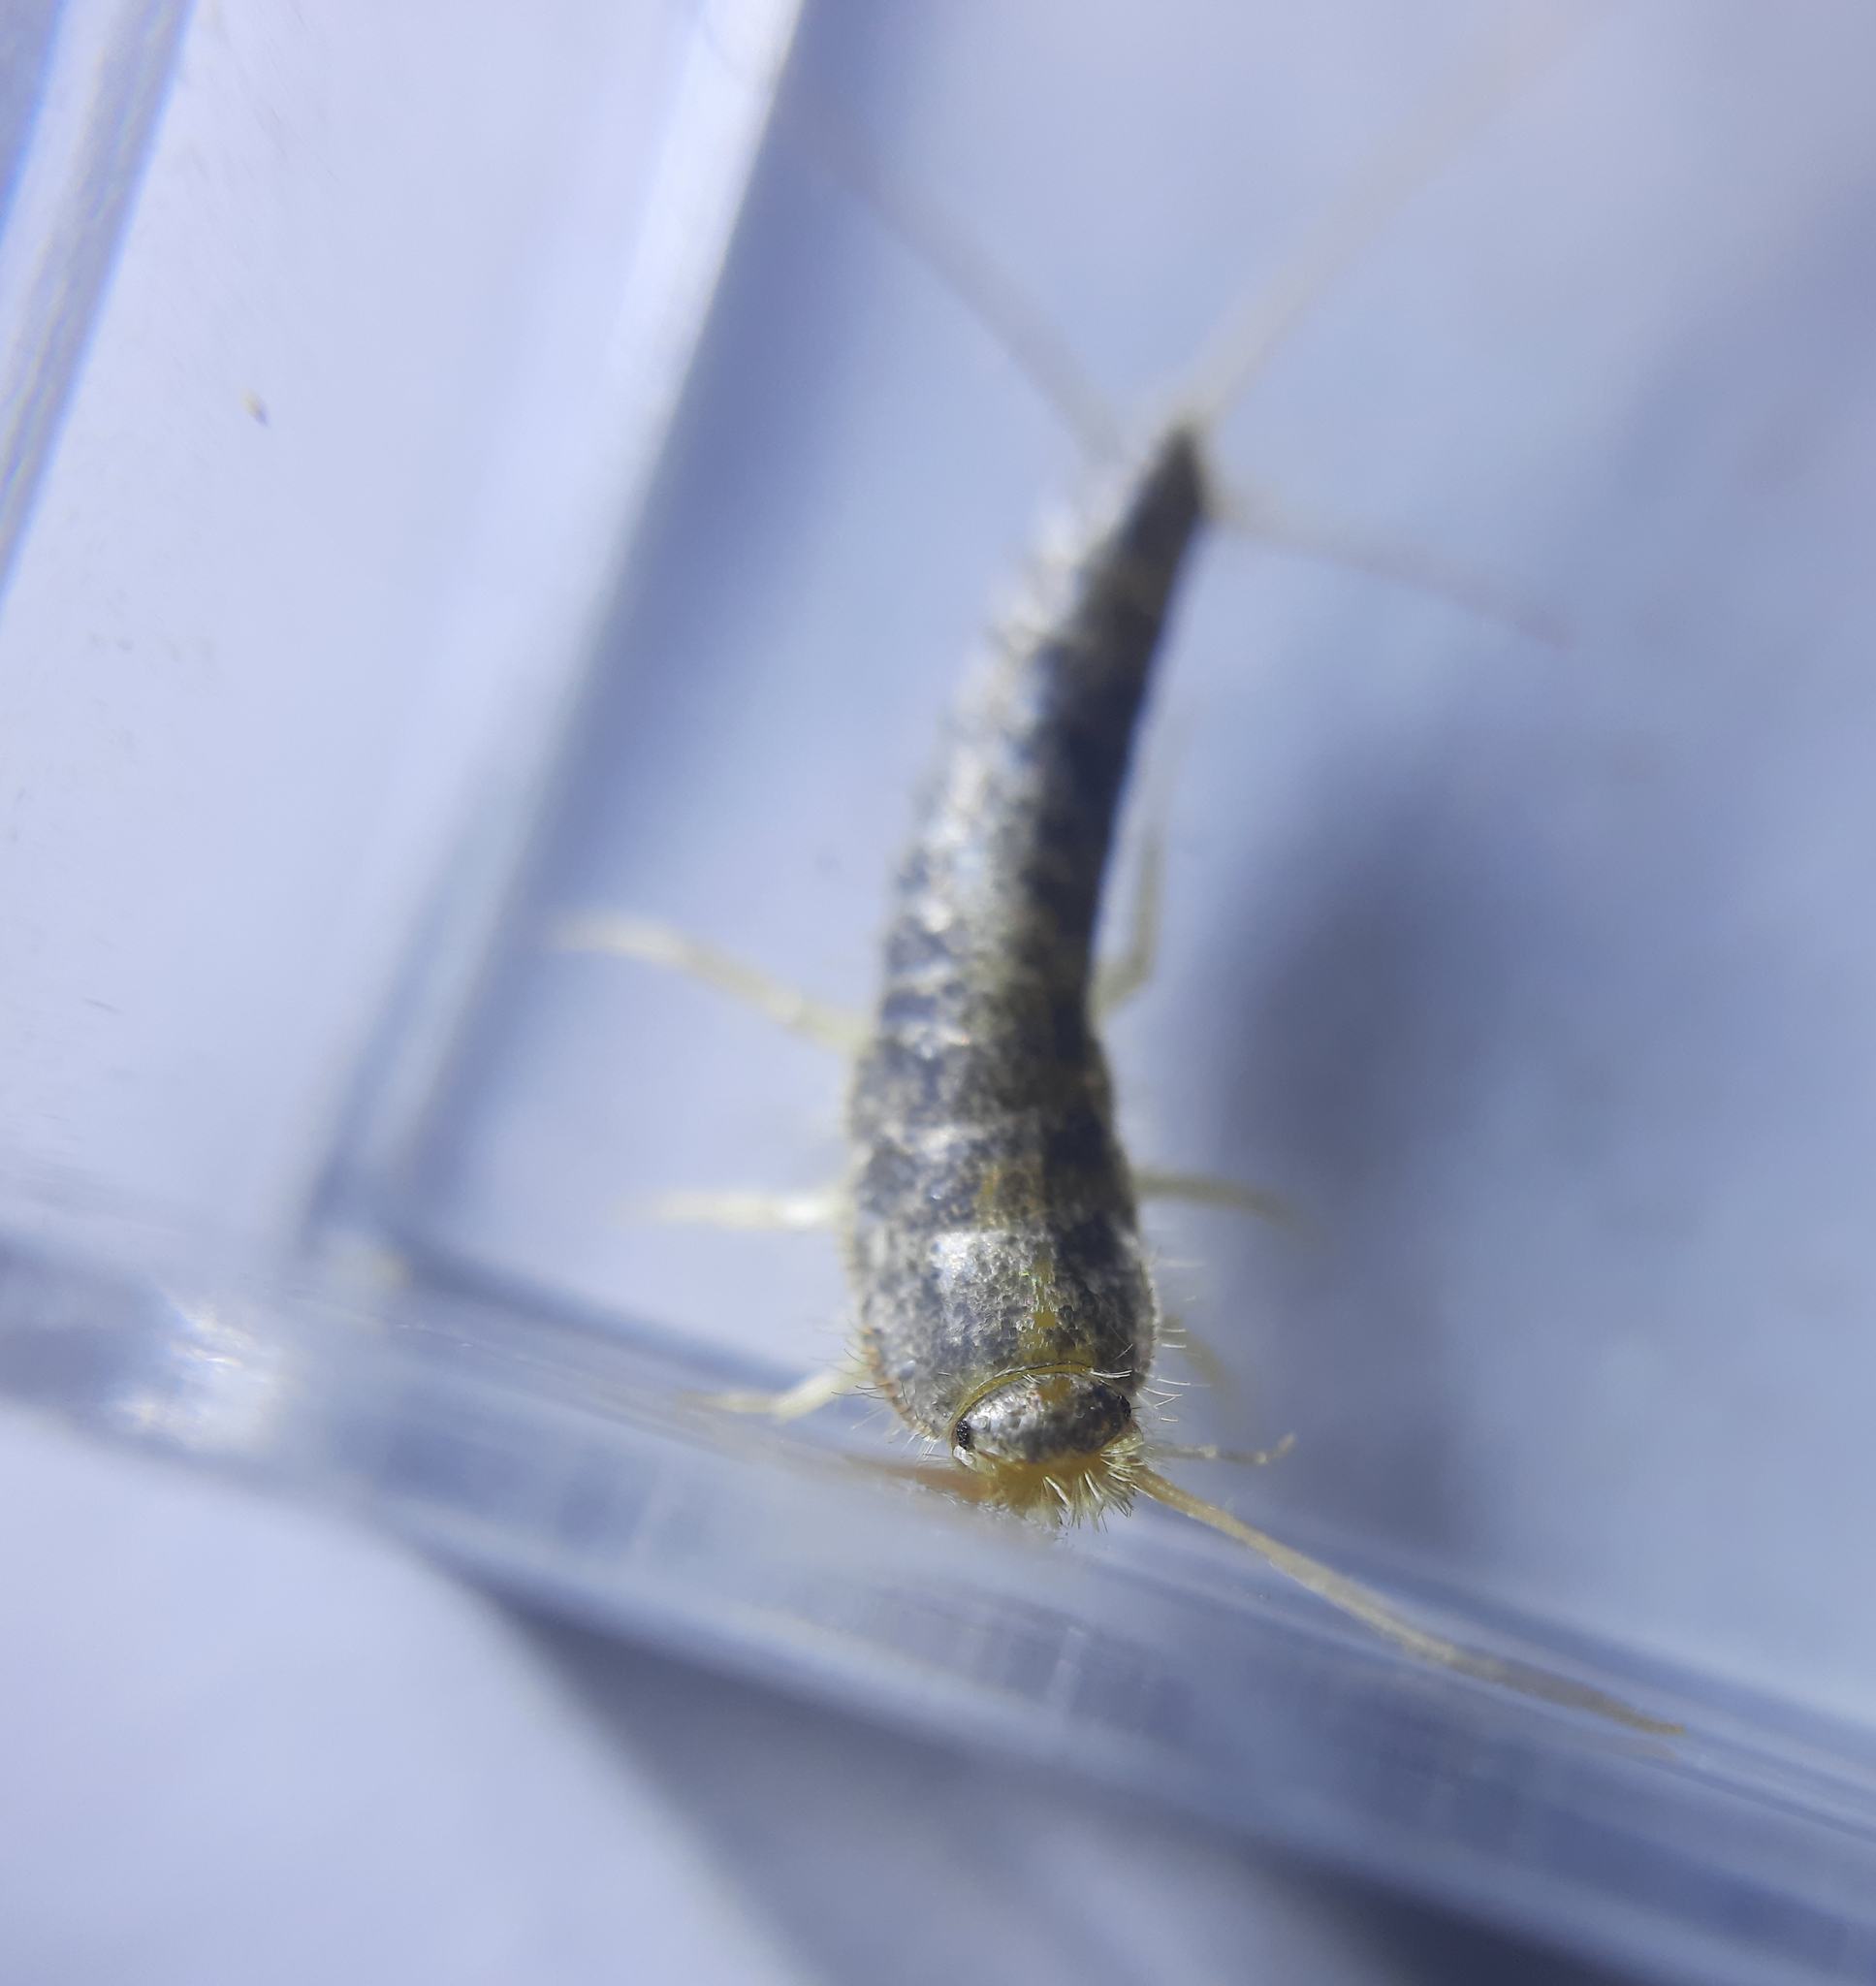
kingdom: Animalia
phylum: Arthropoda
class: Insecta
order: Zygentoma
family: Lepismatidae
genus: Ctenolepisma
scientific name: Ctenolepisma longicaudatum
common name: Silverfish
